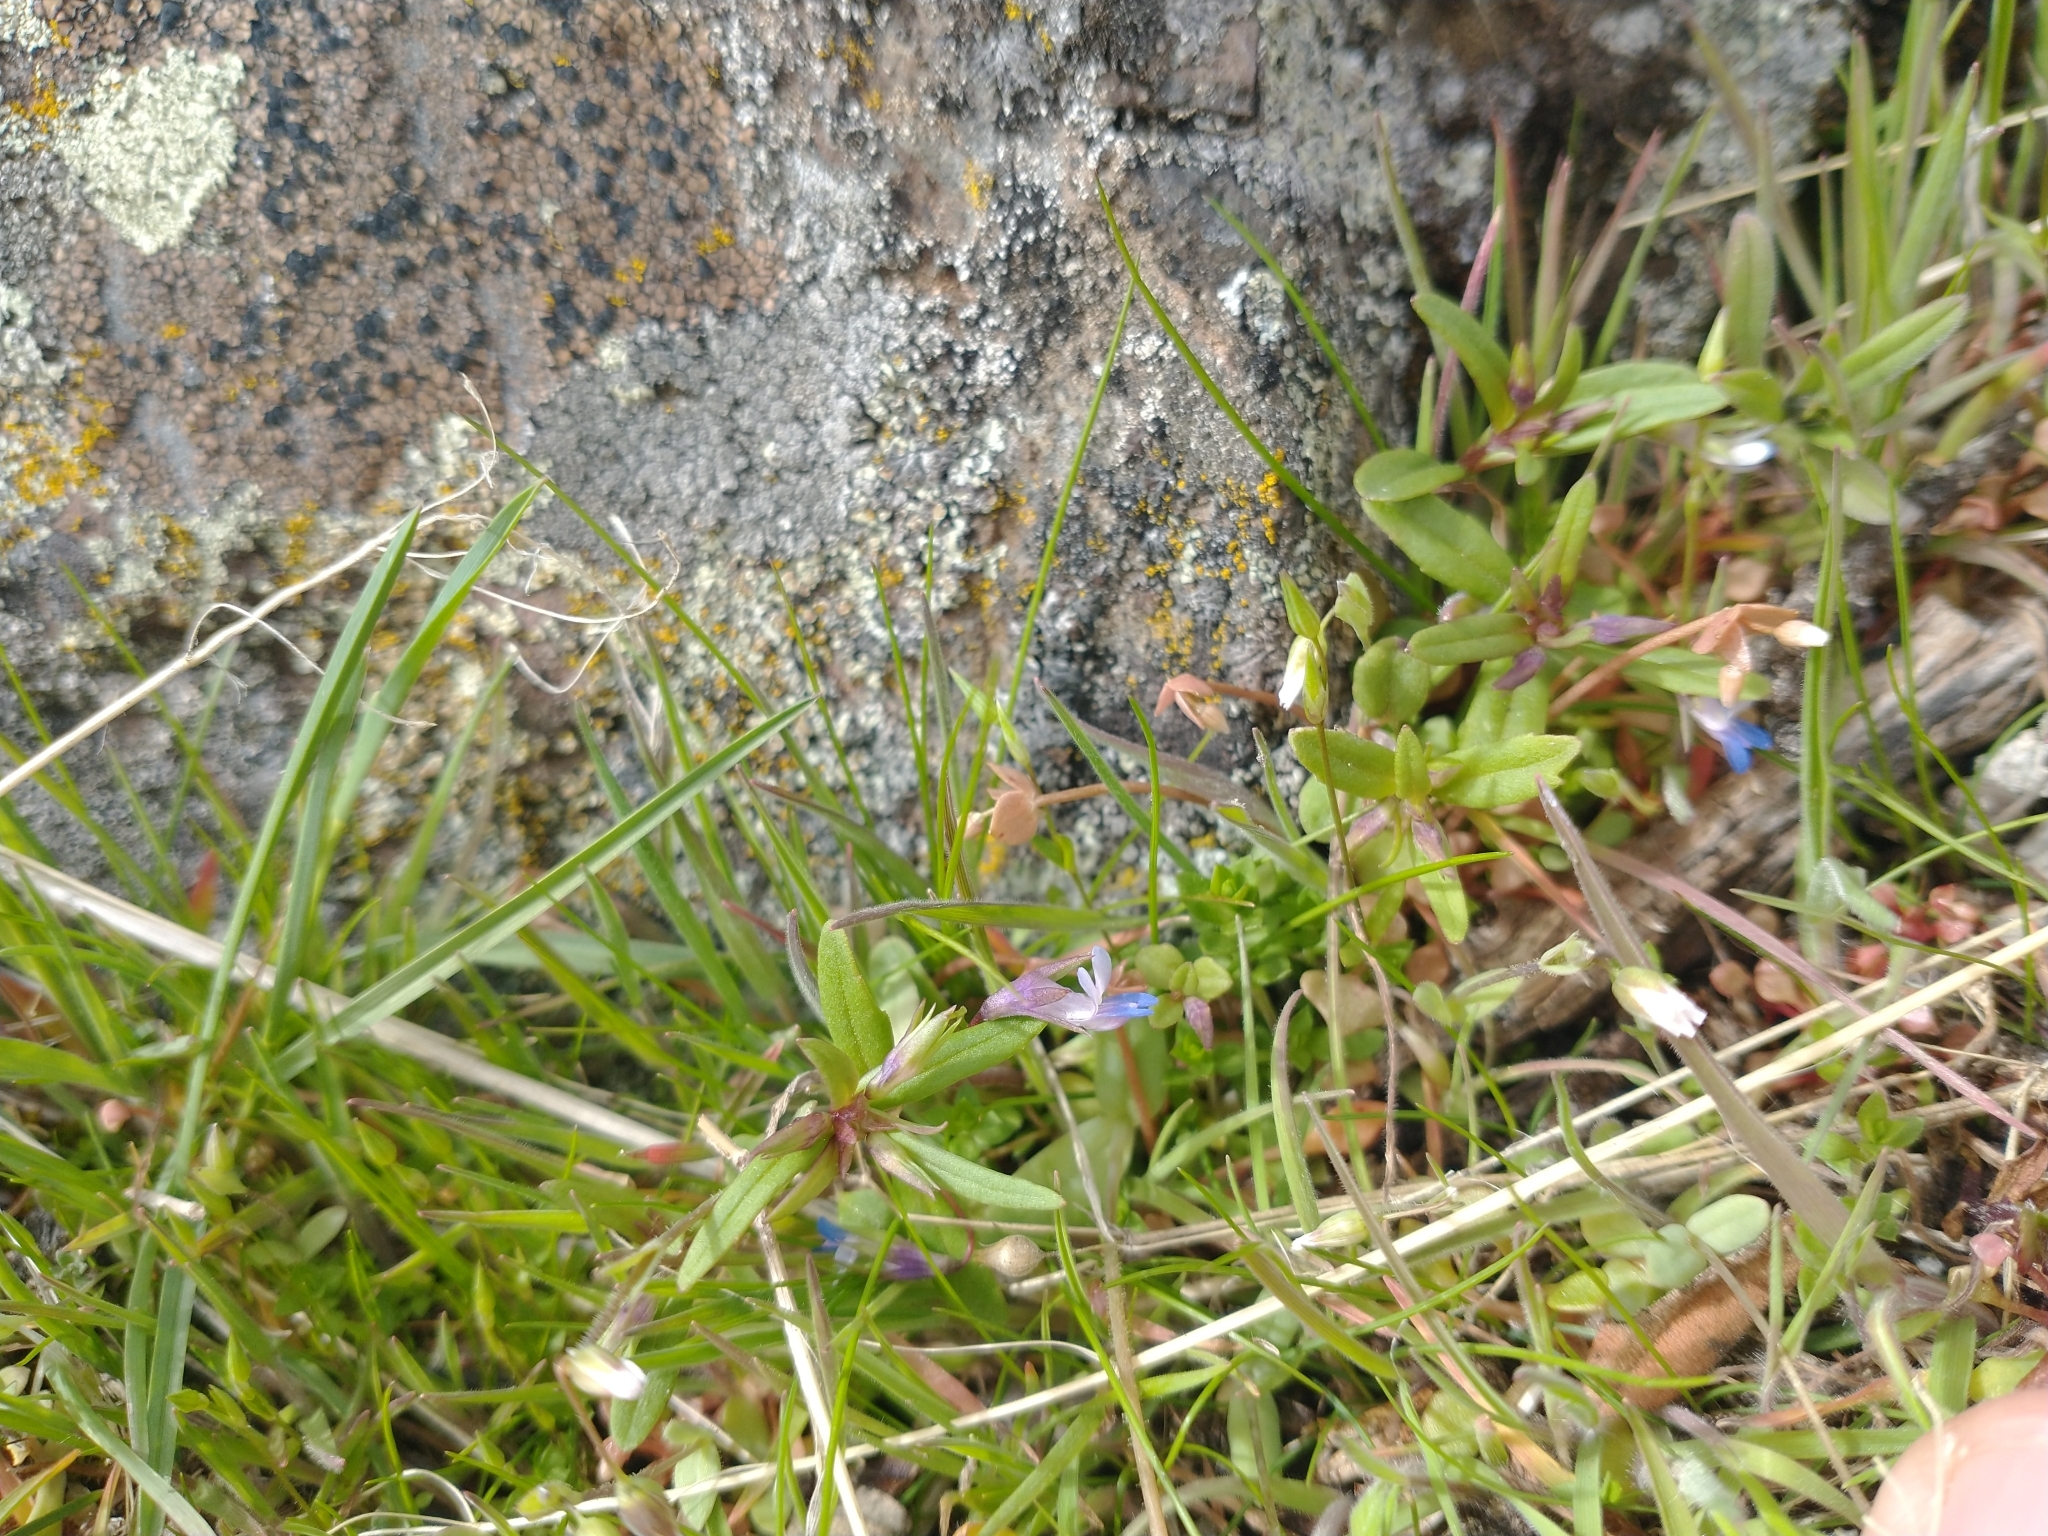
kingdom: Plantae
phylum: Tracheophyta
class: Magnoliopsida
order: Lamiales
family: Plantaginaceae
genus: Collinsia
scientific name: Collinsia parviflora
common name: Blue-lips
